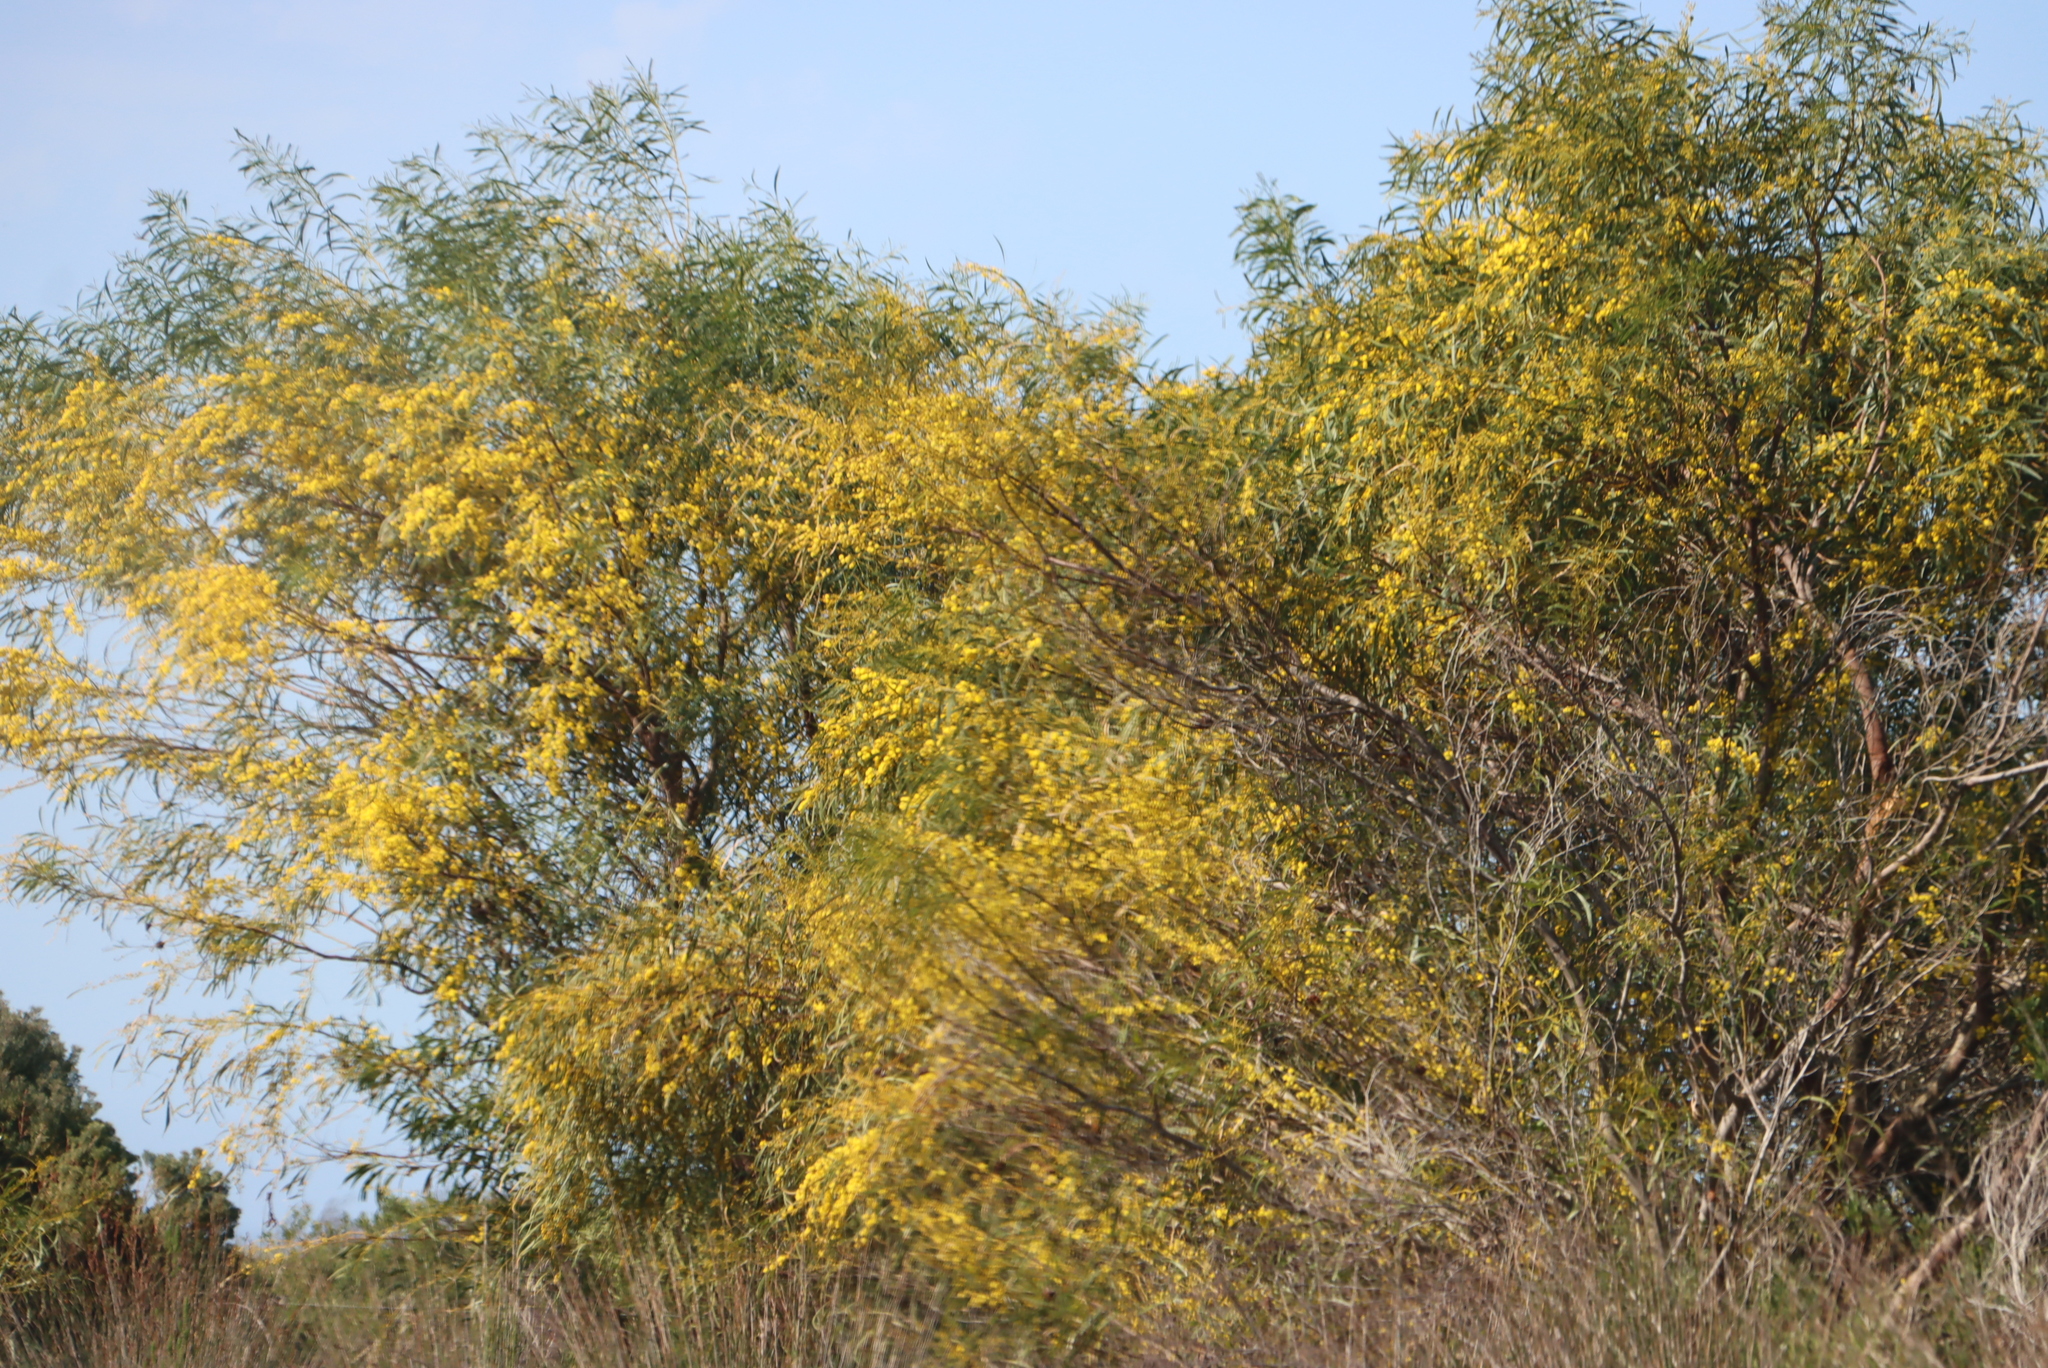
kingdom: Plantae
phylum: Tracheophyta
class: Magnoliopsida
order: Fabales
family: Fabaceae
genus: Acacia
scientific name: Acacia saligna
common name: Orange wattle
